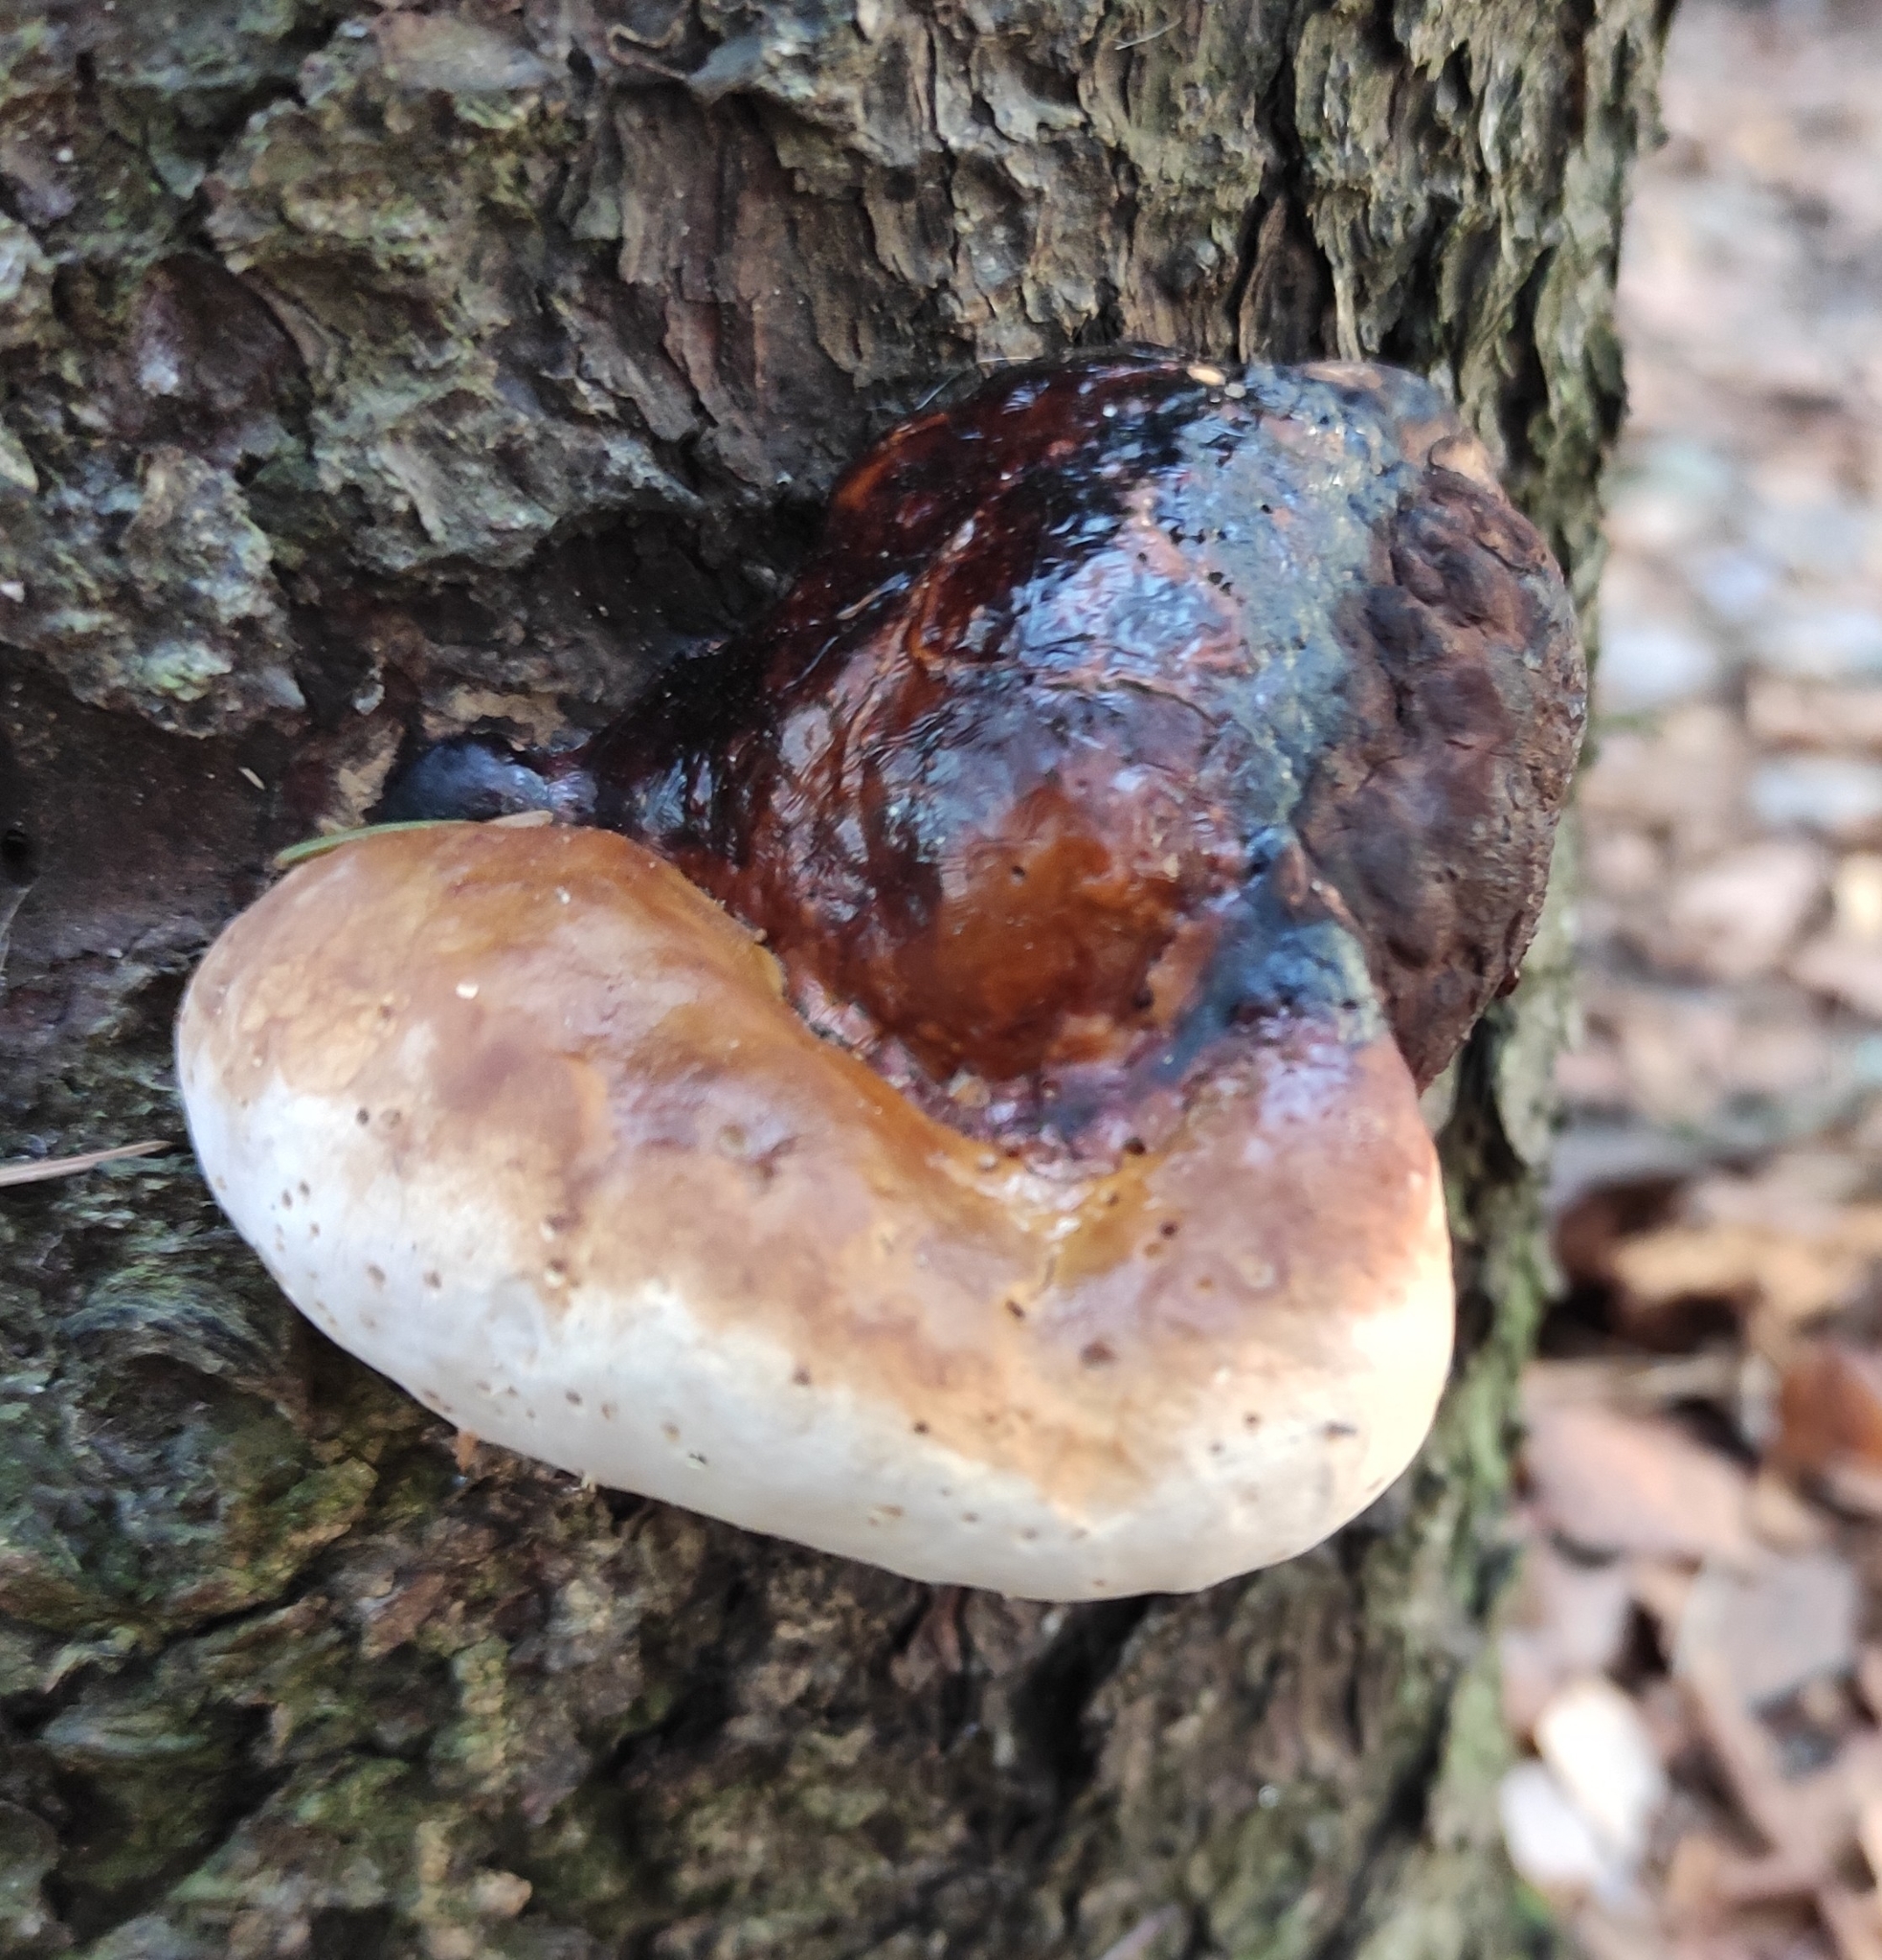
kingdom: Fungi
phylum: Basidiomycota
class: Agaricomycetes
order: Polyporales
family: Fomitopsidaceae
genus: Fomitopsis
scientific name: Fomitopsis pinicola
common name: Red-belted bracket
